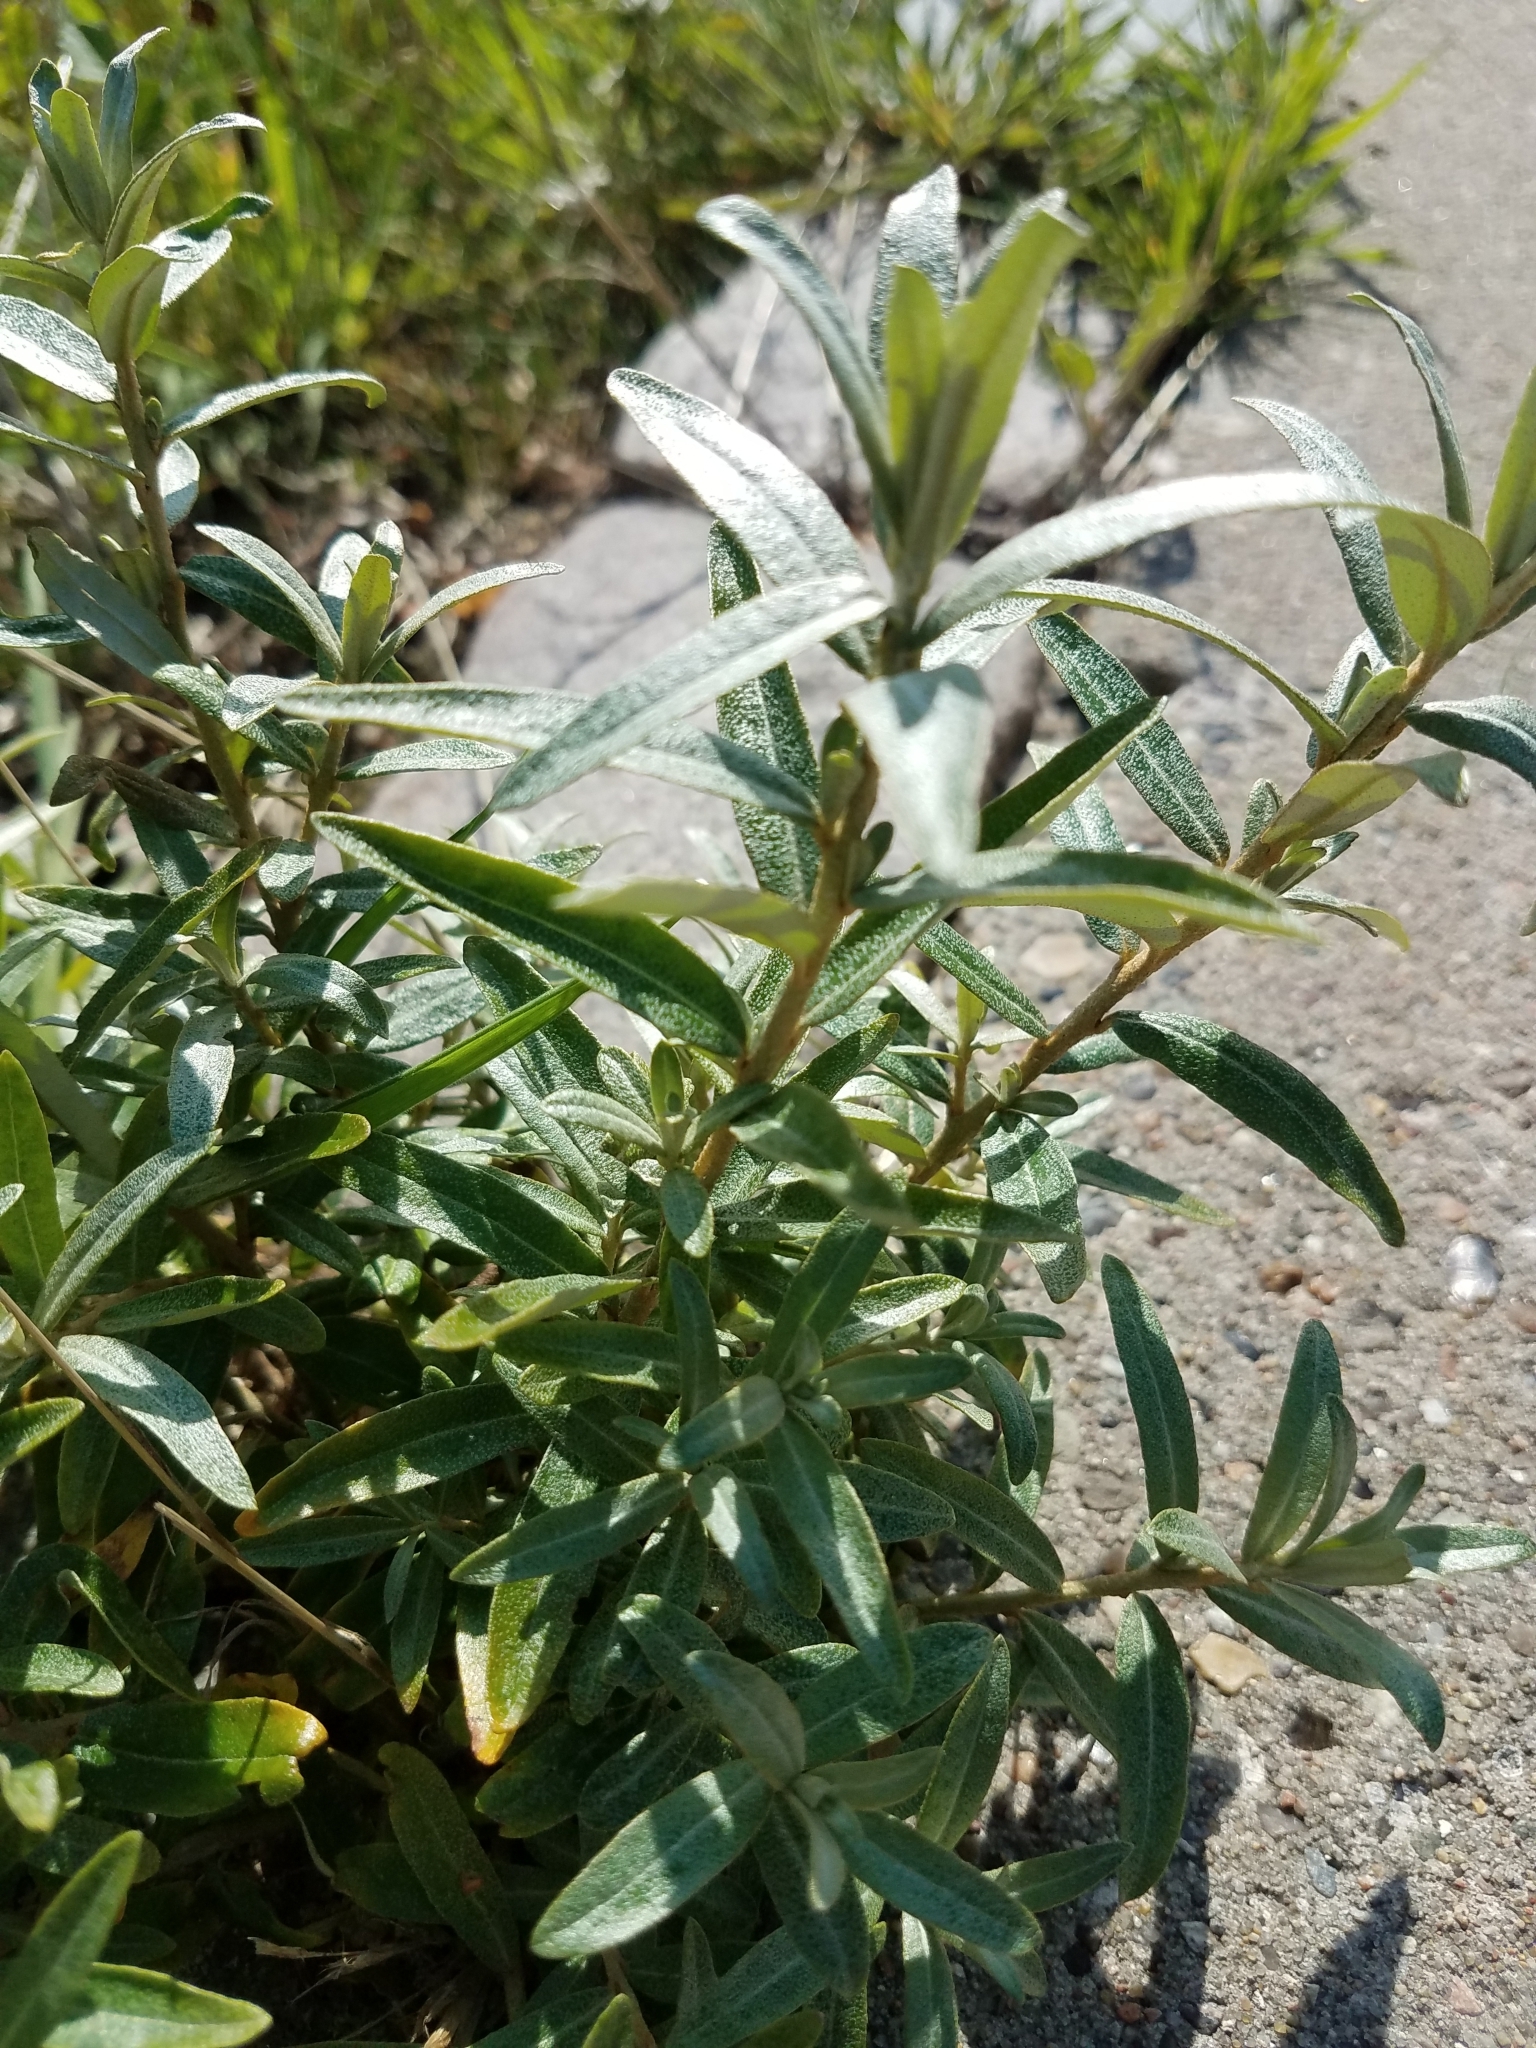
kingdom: Plantae
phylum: Tracheophyta
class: Magnoliopsida
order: Rosales
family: Elaeagnaceae
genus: Hippophae
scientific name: Hippophae rhamnoides
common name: Sea-buckthorn
